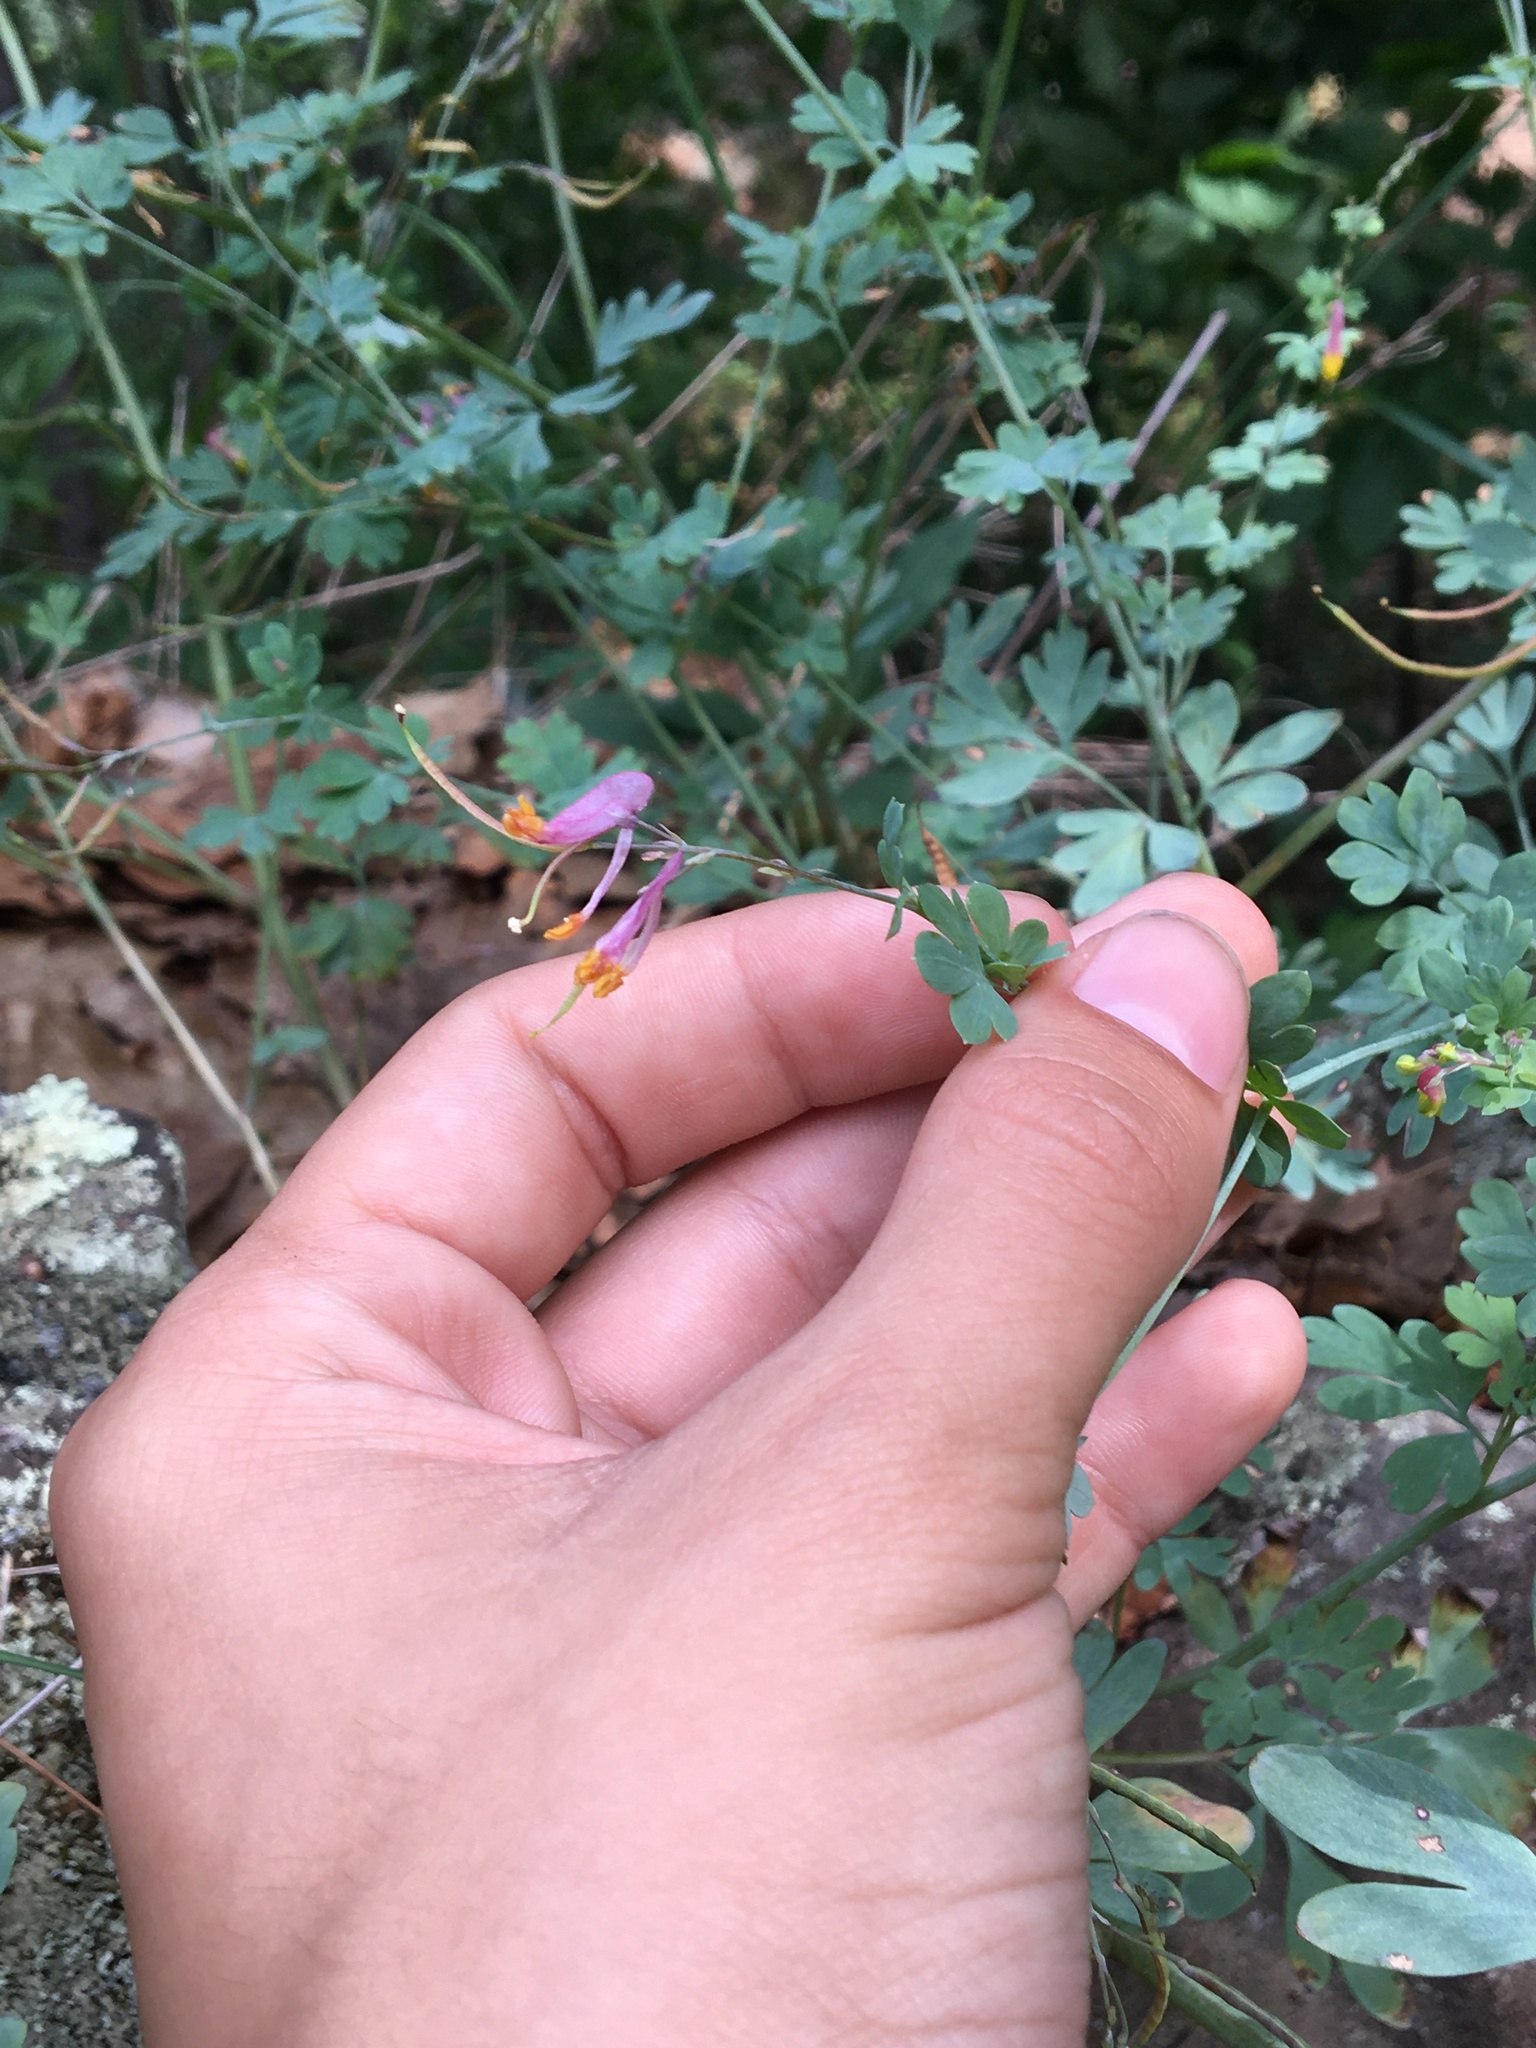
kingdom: Plantae
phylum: Tracheophyta
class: Magnoliopsida
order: Ranunculales
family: Papaveraceae
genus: Capnoides
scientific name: Capnoides sempervirens
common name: Rock harlequin
